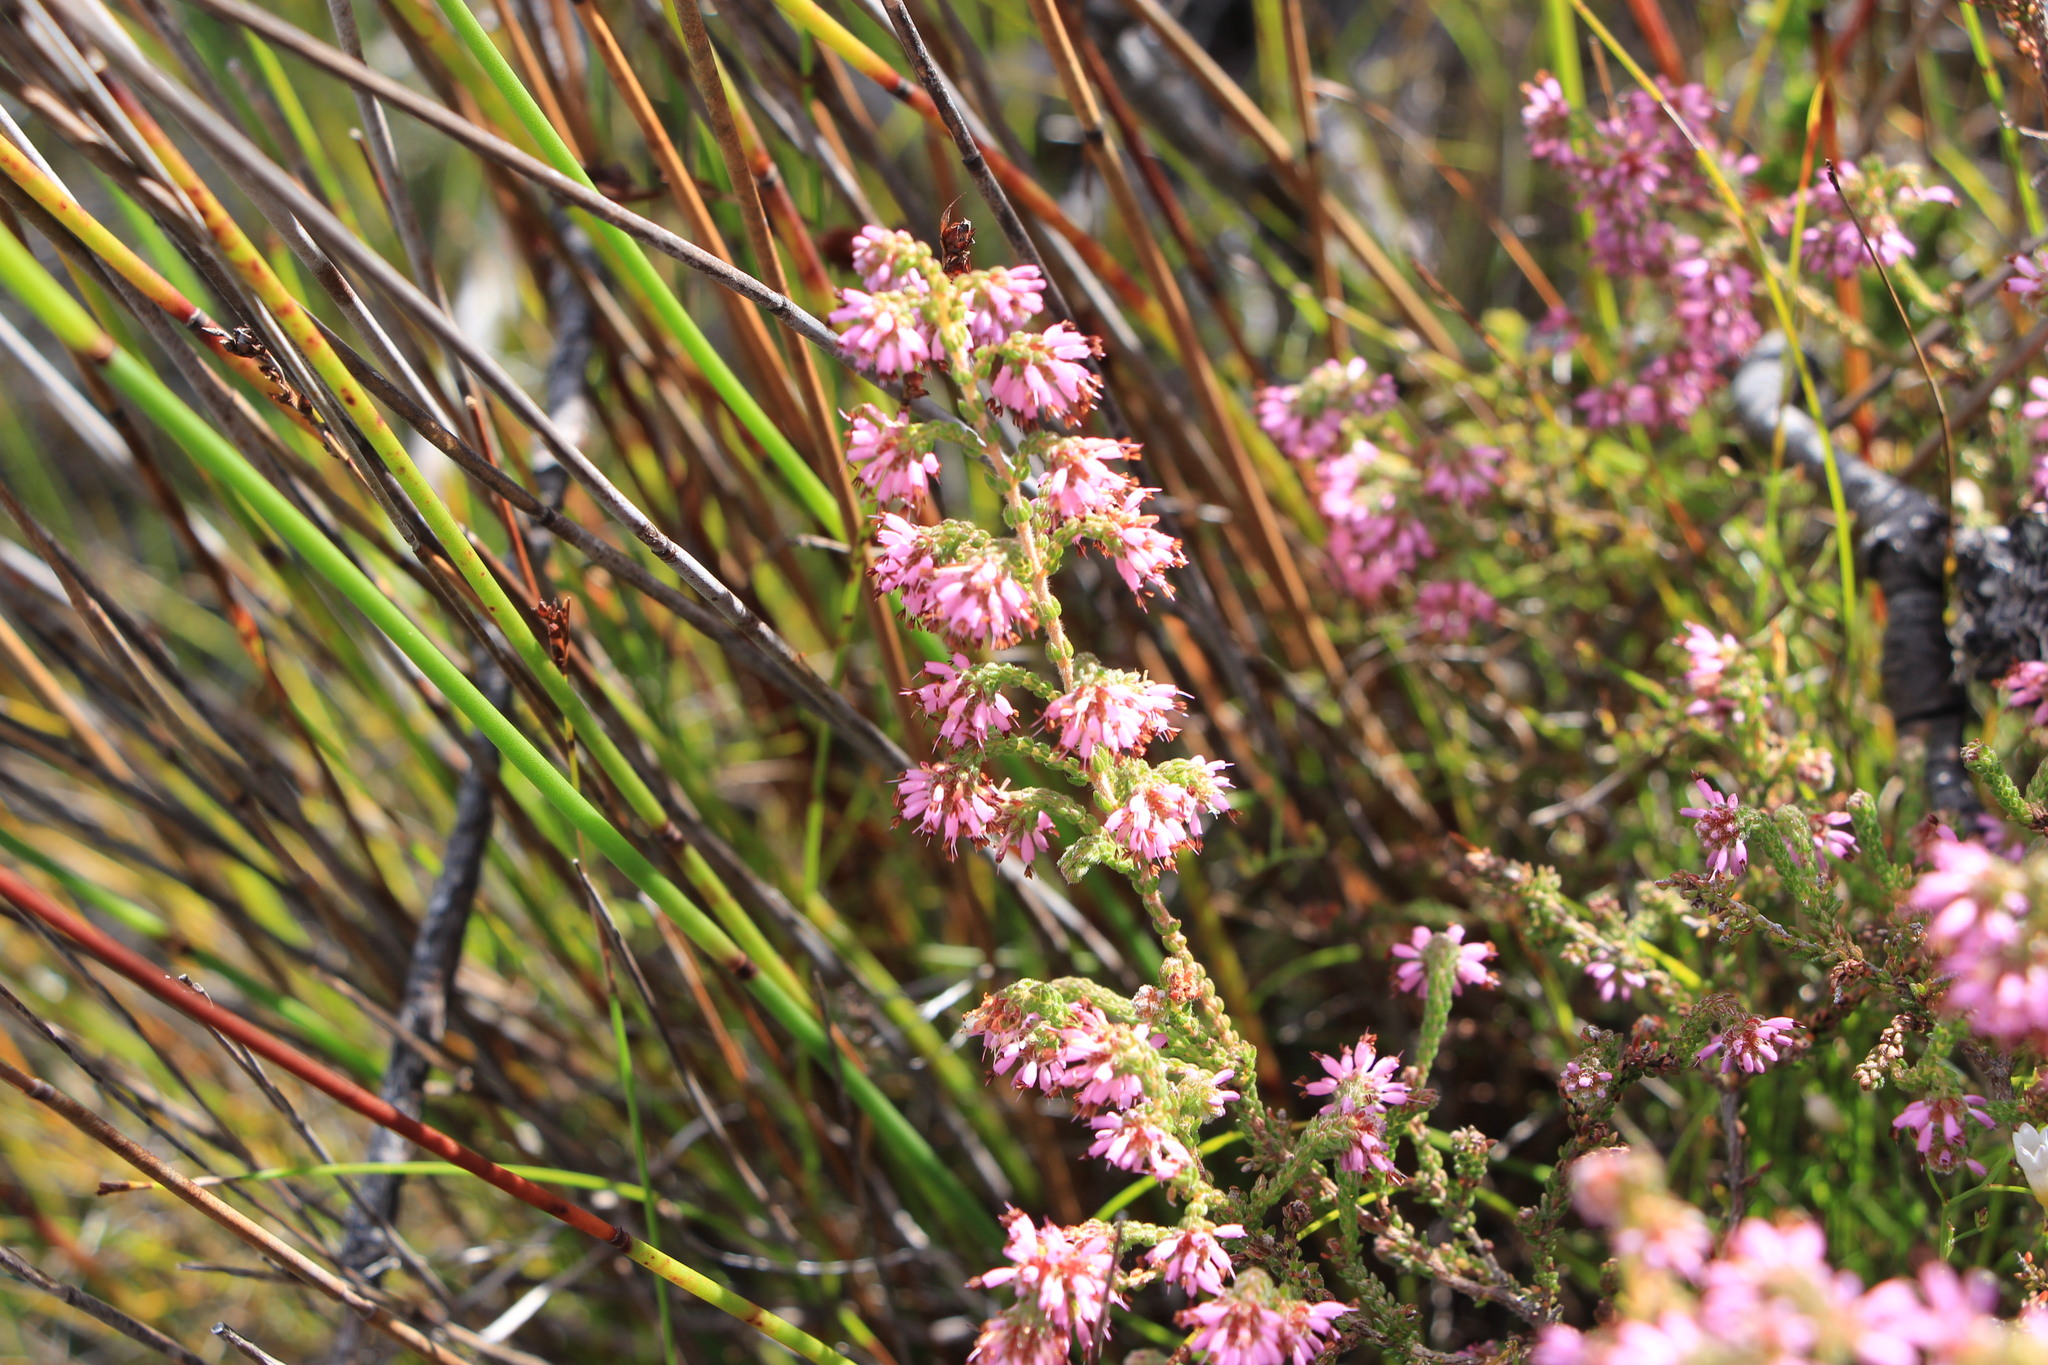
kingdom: Plantae
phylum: Tracheophyta
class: Magnoliopsida
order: Ericales
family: Ericaceae
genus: Erica
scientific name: Erica globiceps
